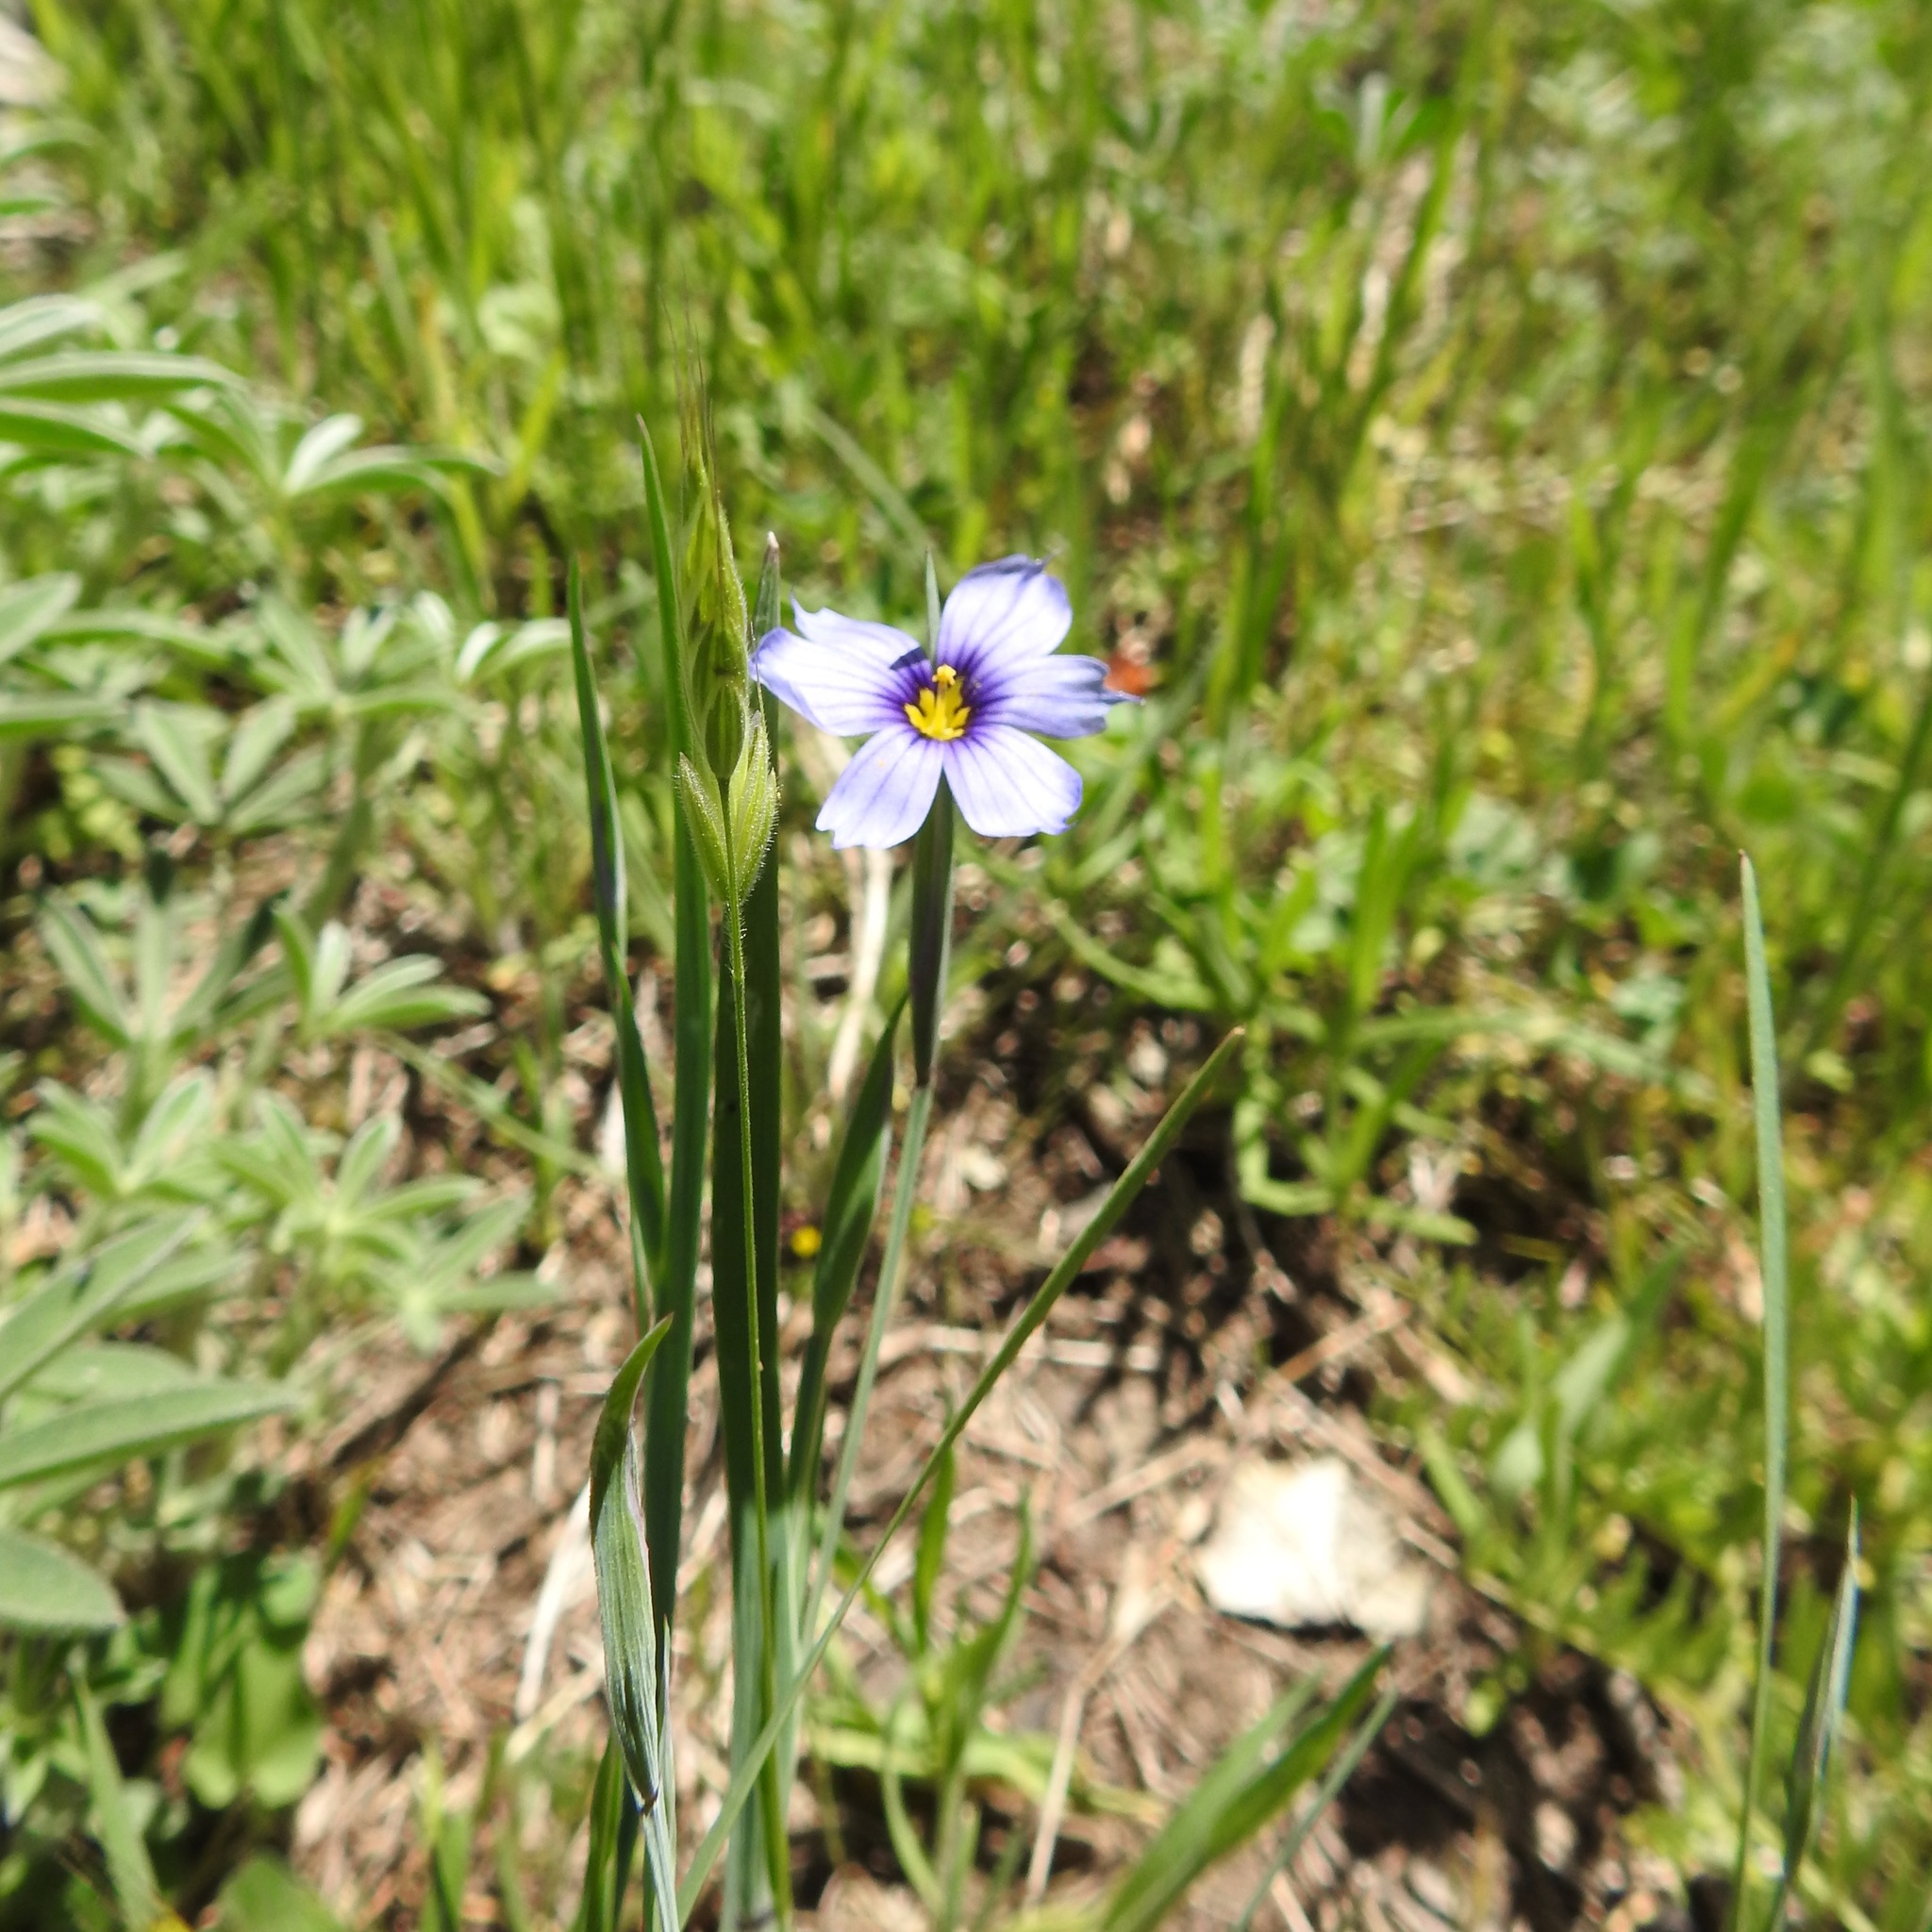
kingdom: Plantae
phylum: Tracheophyta
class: Liliopsida
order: Asparagales
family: Iridaceae
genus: Sisyrinchium
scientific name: Sisyrinchium bellum
